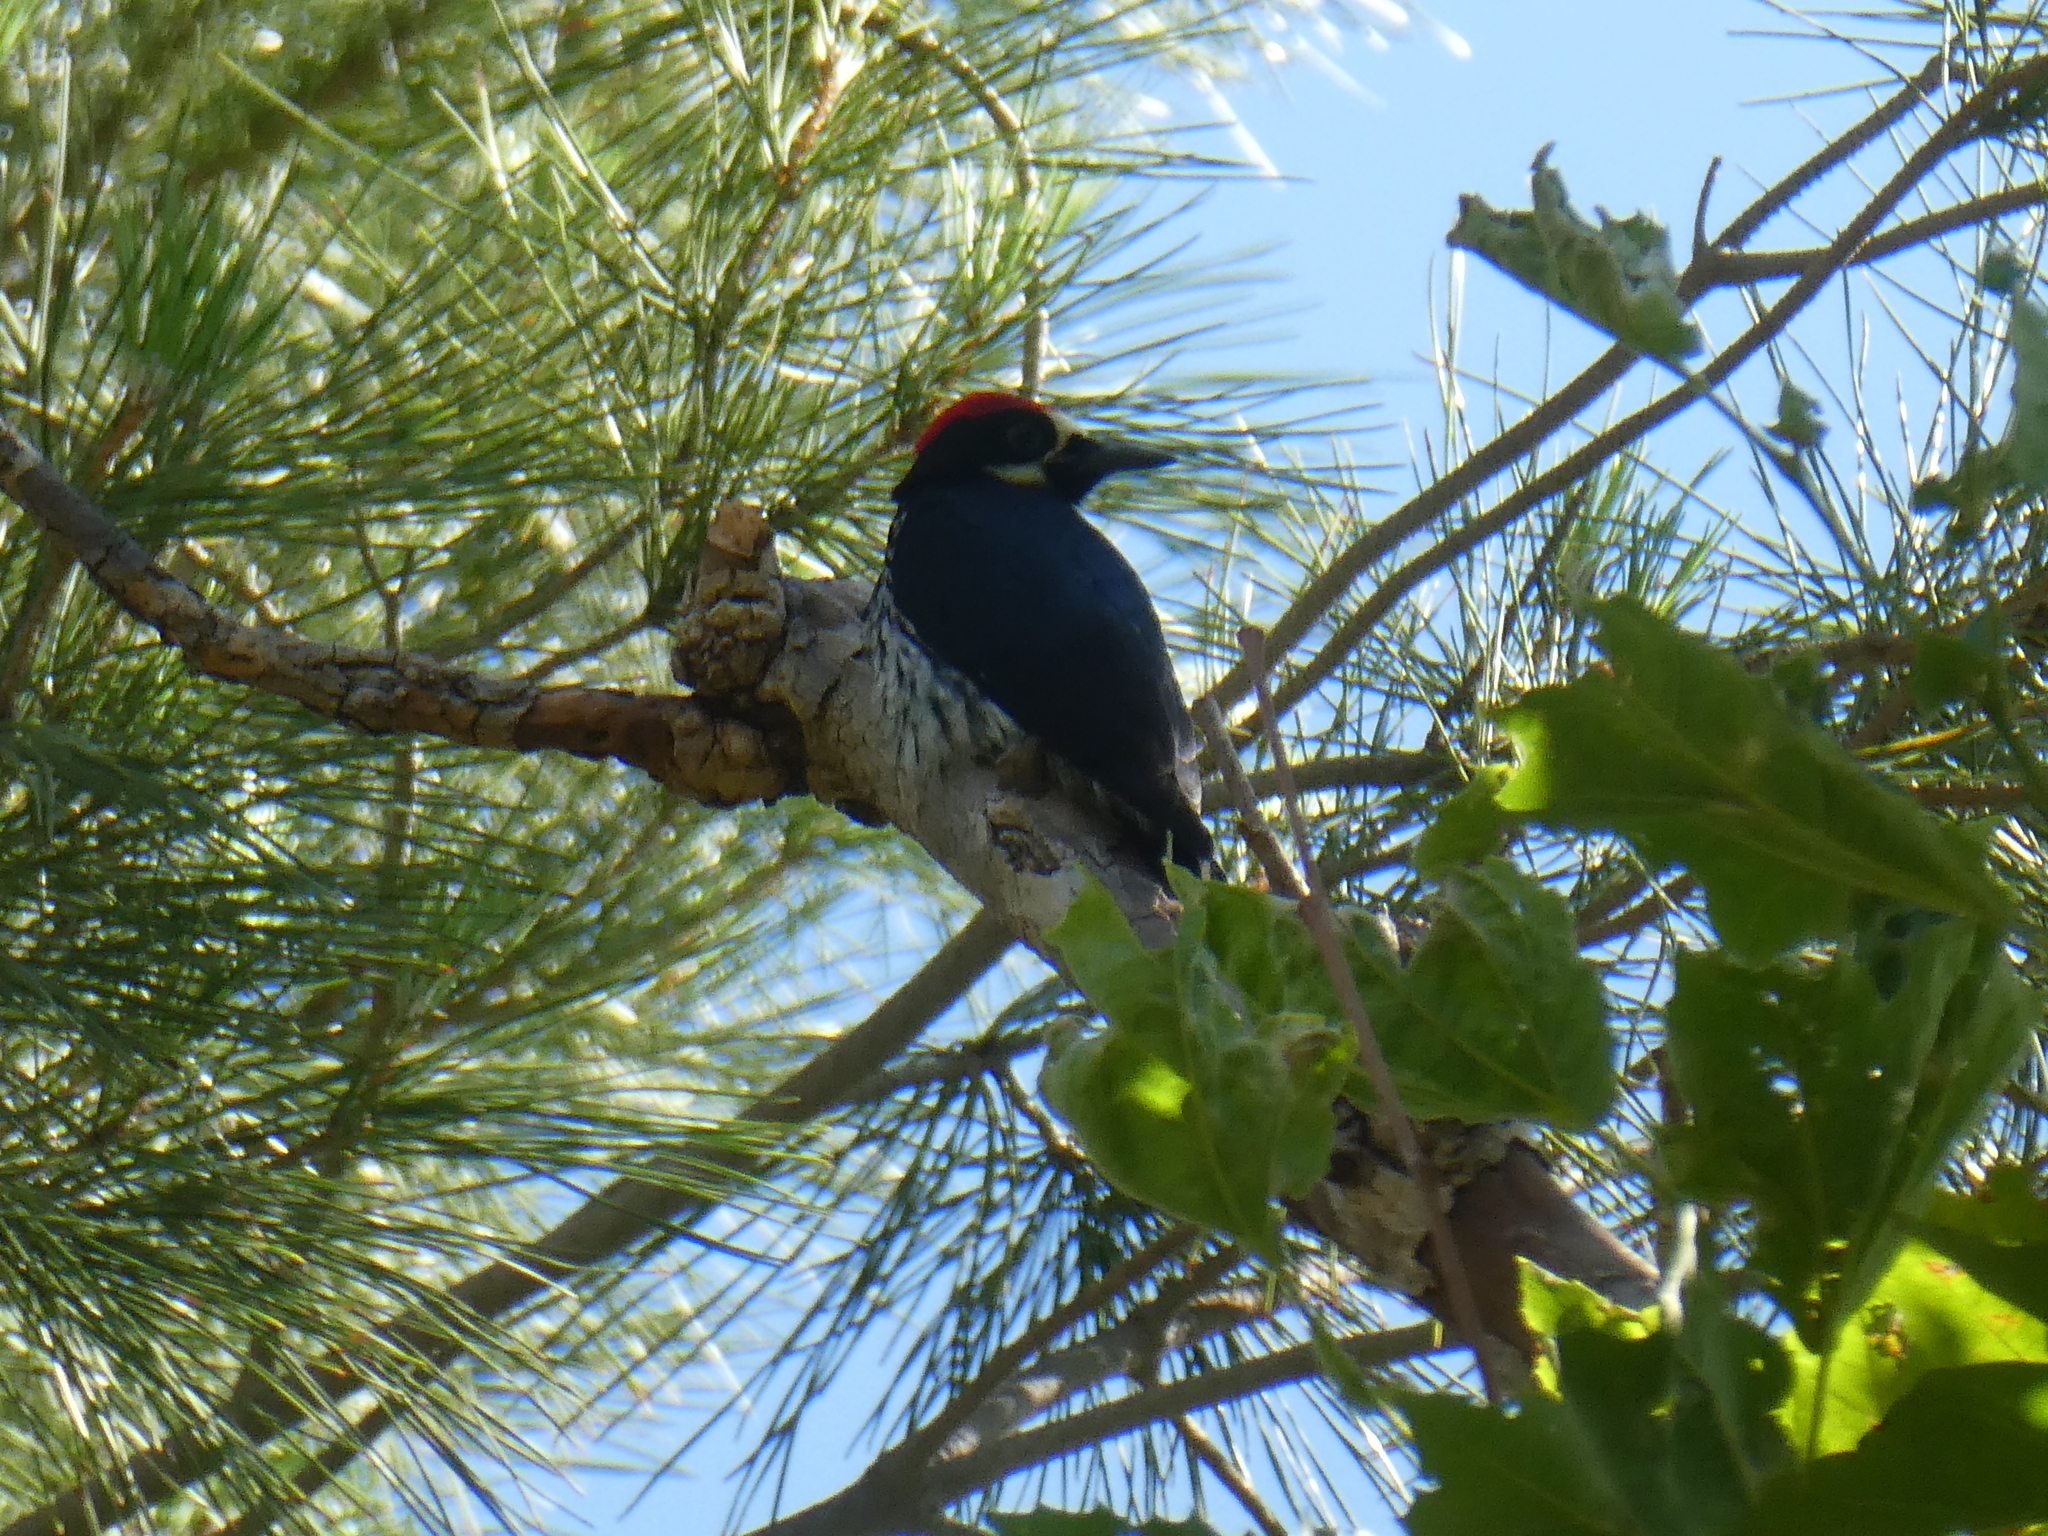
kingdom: Animalia
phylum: Chordata
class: Aves
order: Piciformes
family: Picidae
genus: Melanerpes
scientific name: Melanerpes formicivorus
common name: Acorn woodpecker
